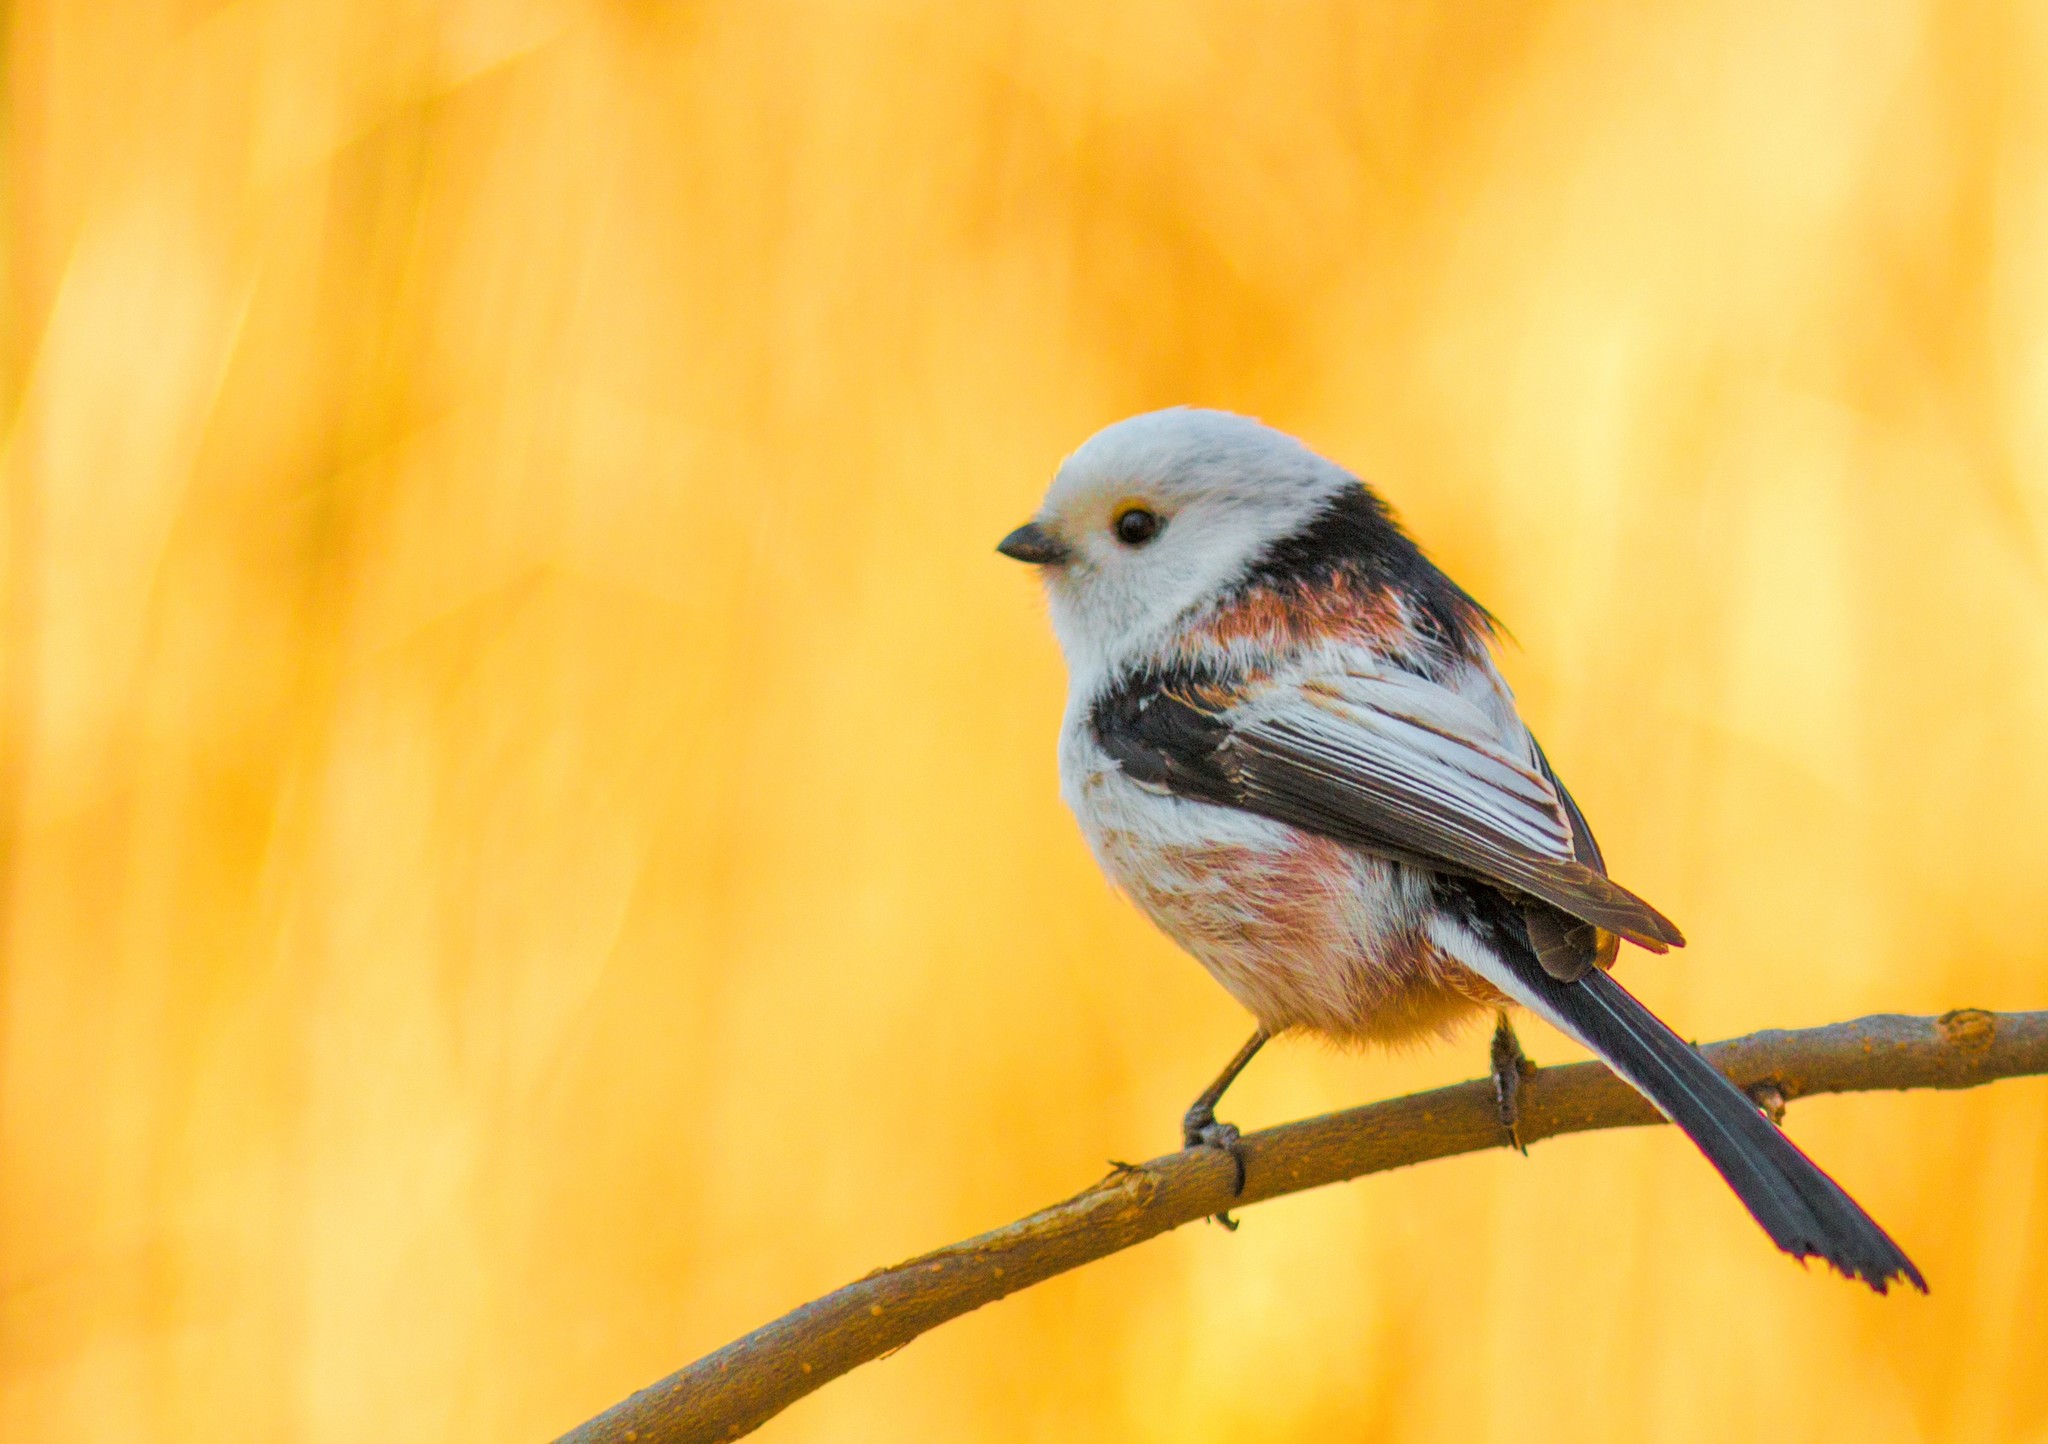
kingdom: Animalia
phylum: Chordata
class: Aves
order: Passeriformes
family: Aegithalidae
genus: Aegithalos
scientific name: Aegithalos caudatus
